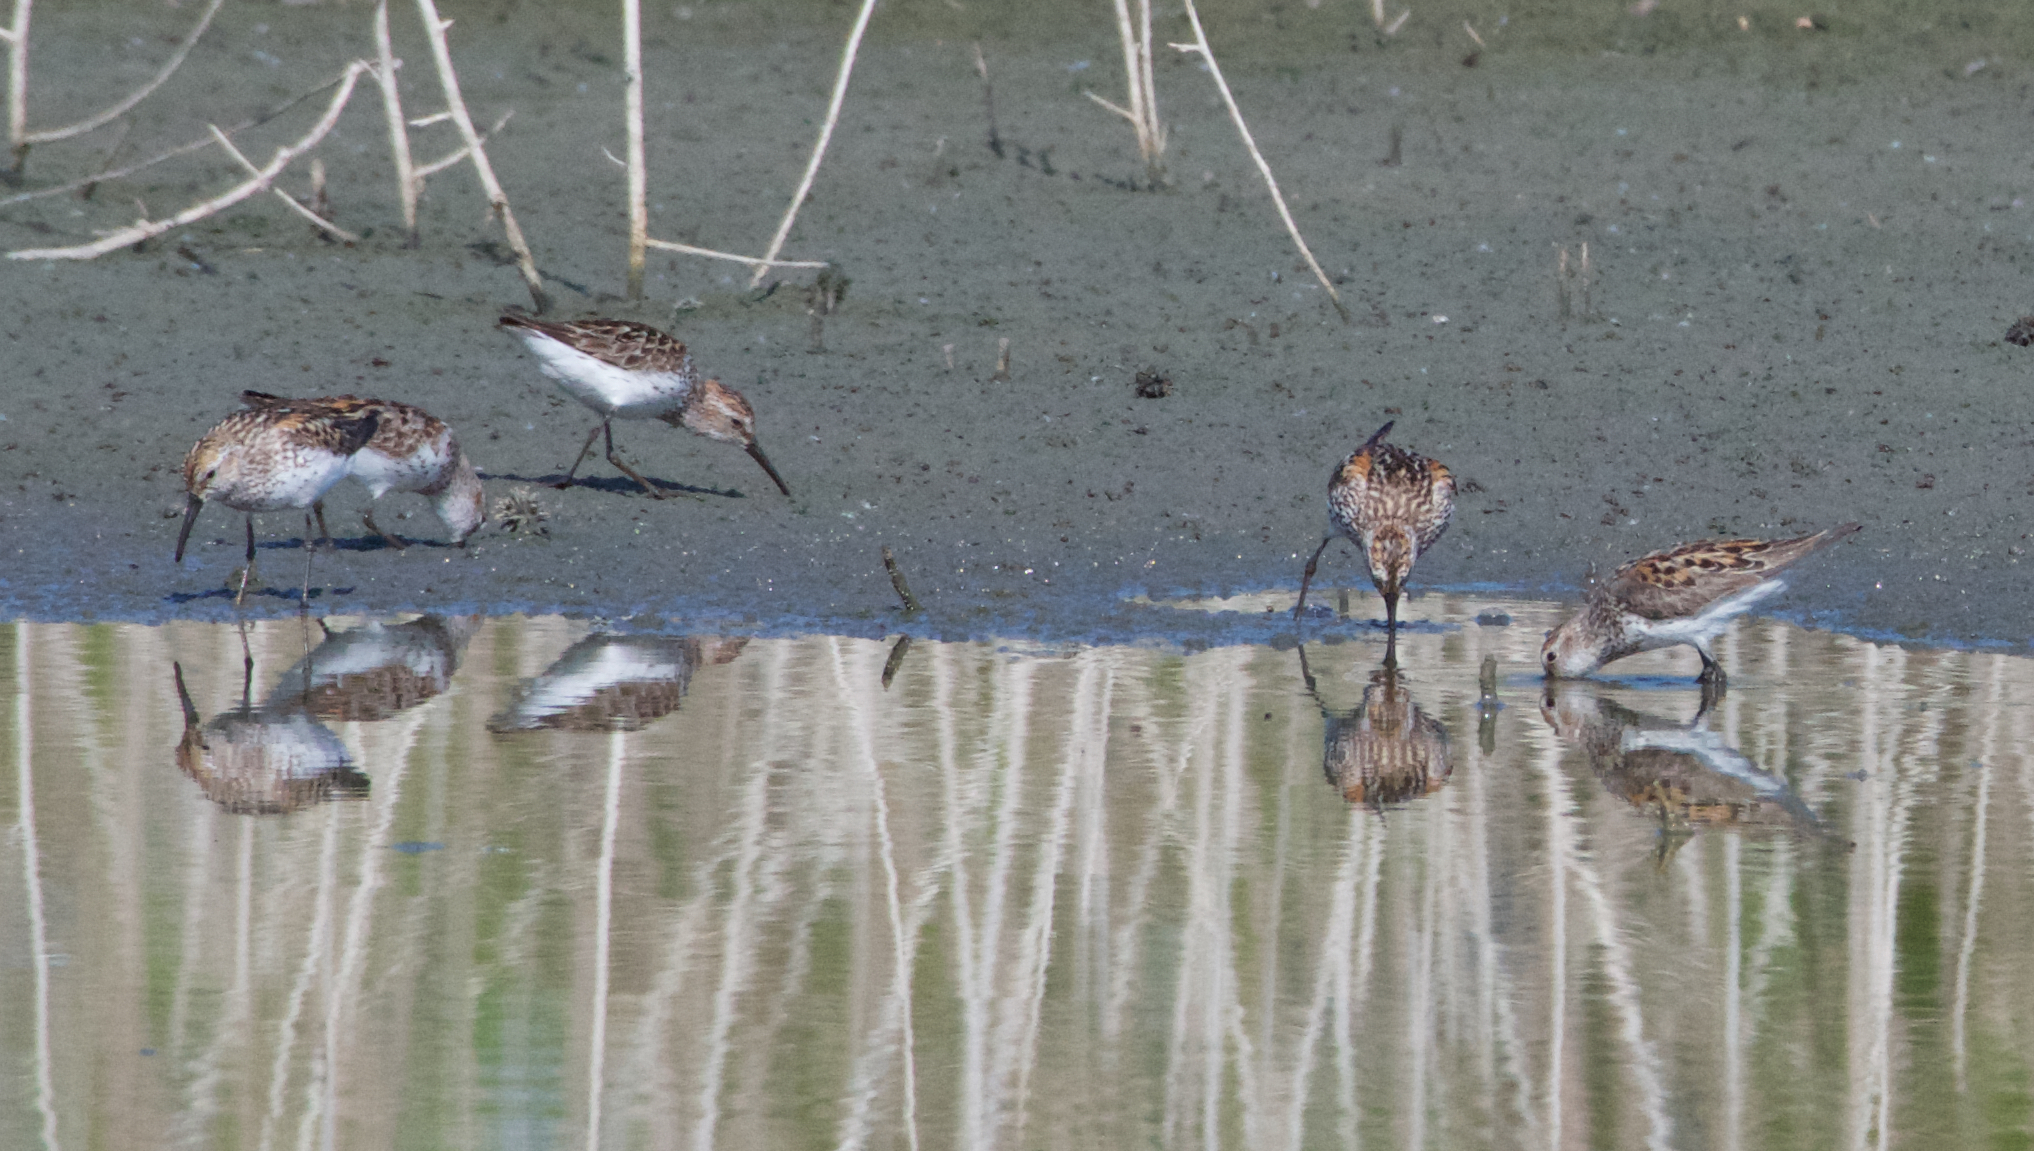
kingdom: Animalia
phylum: Chordata
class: Aves
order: Charadriiformes
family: Scolopacidae
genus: Calidris
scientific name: Calidris mauri
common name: Western sandpiper
